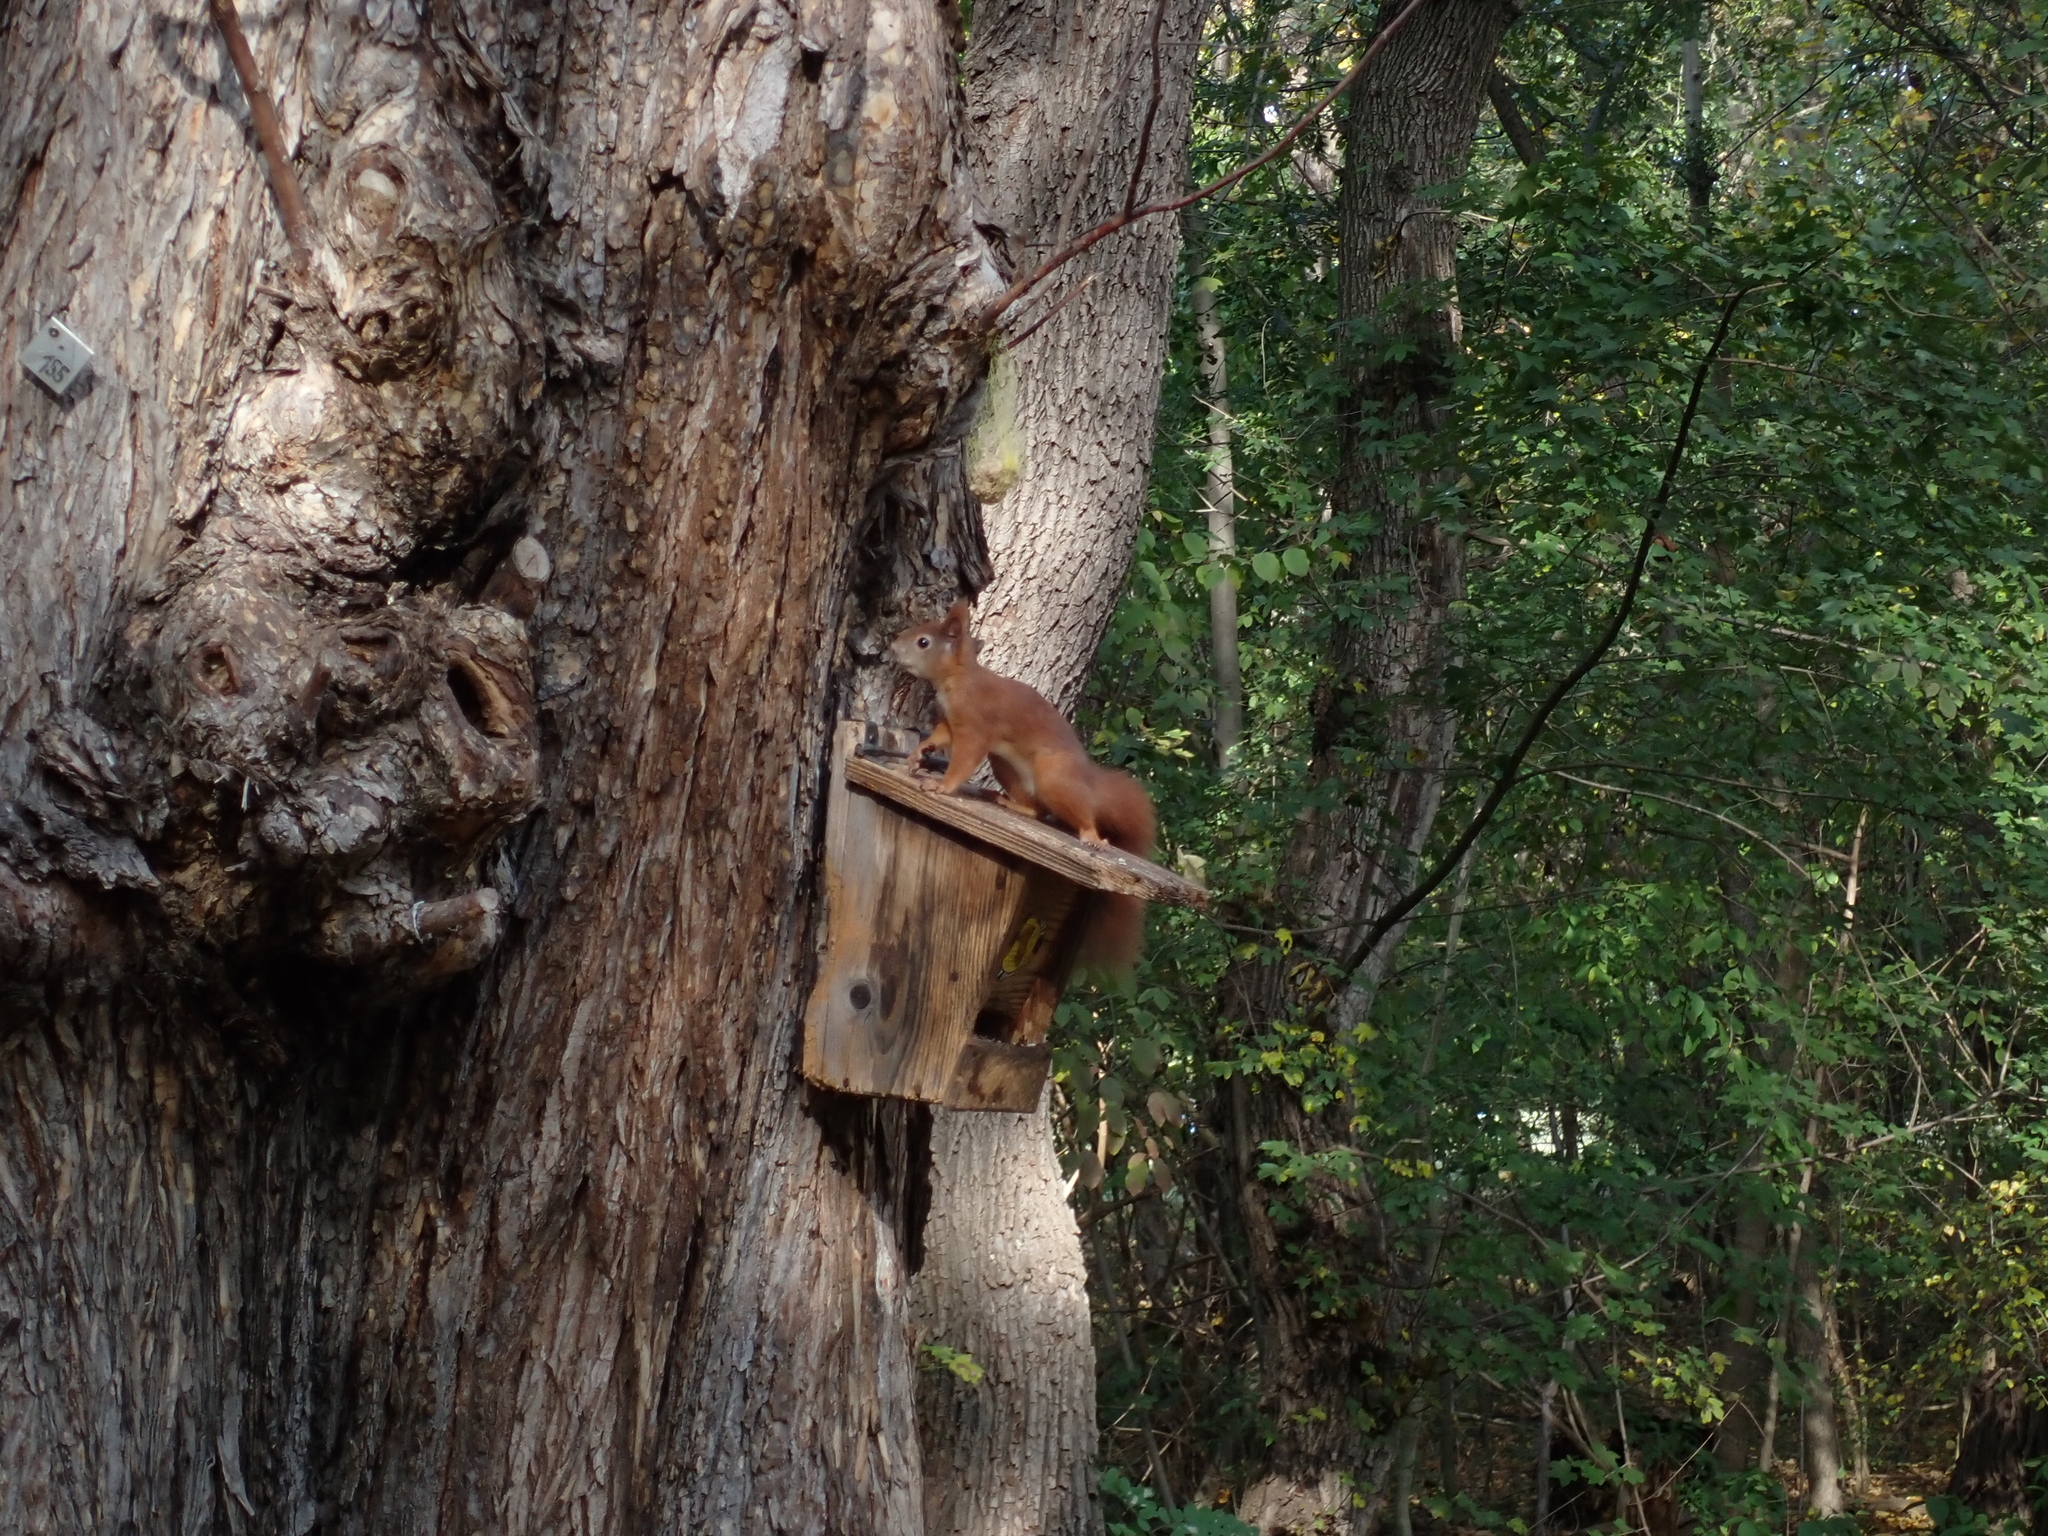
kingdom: Animalia
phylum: Chordata
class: Mammalia
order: Rodentia
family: Sciuridae
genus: Sciurus
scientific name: Sciurus vulgaris
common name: Eurasian red squirrel
